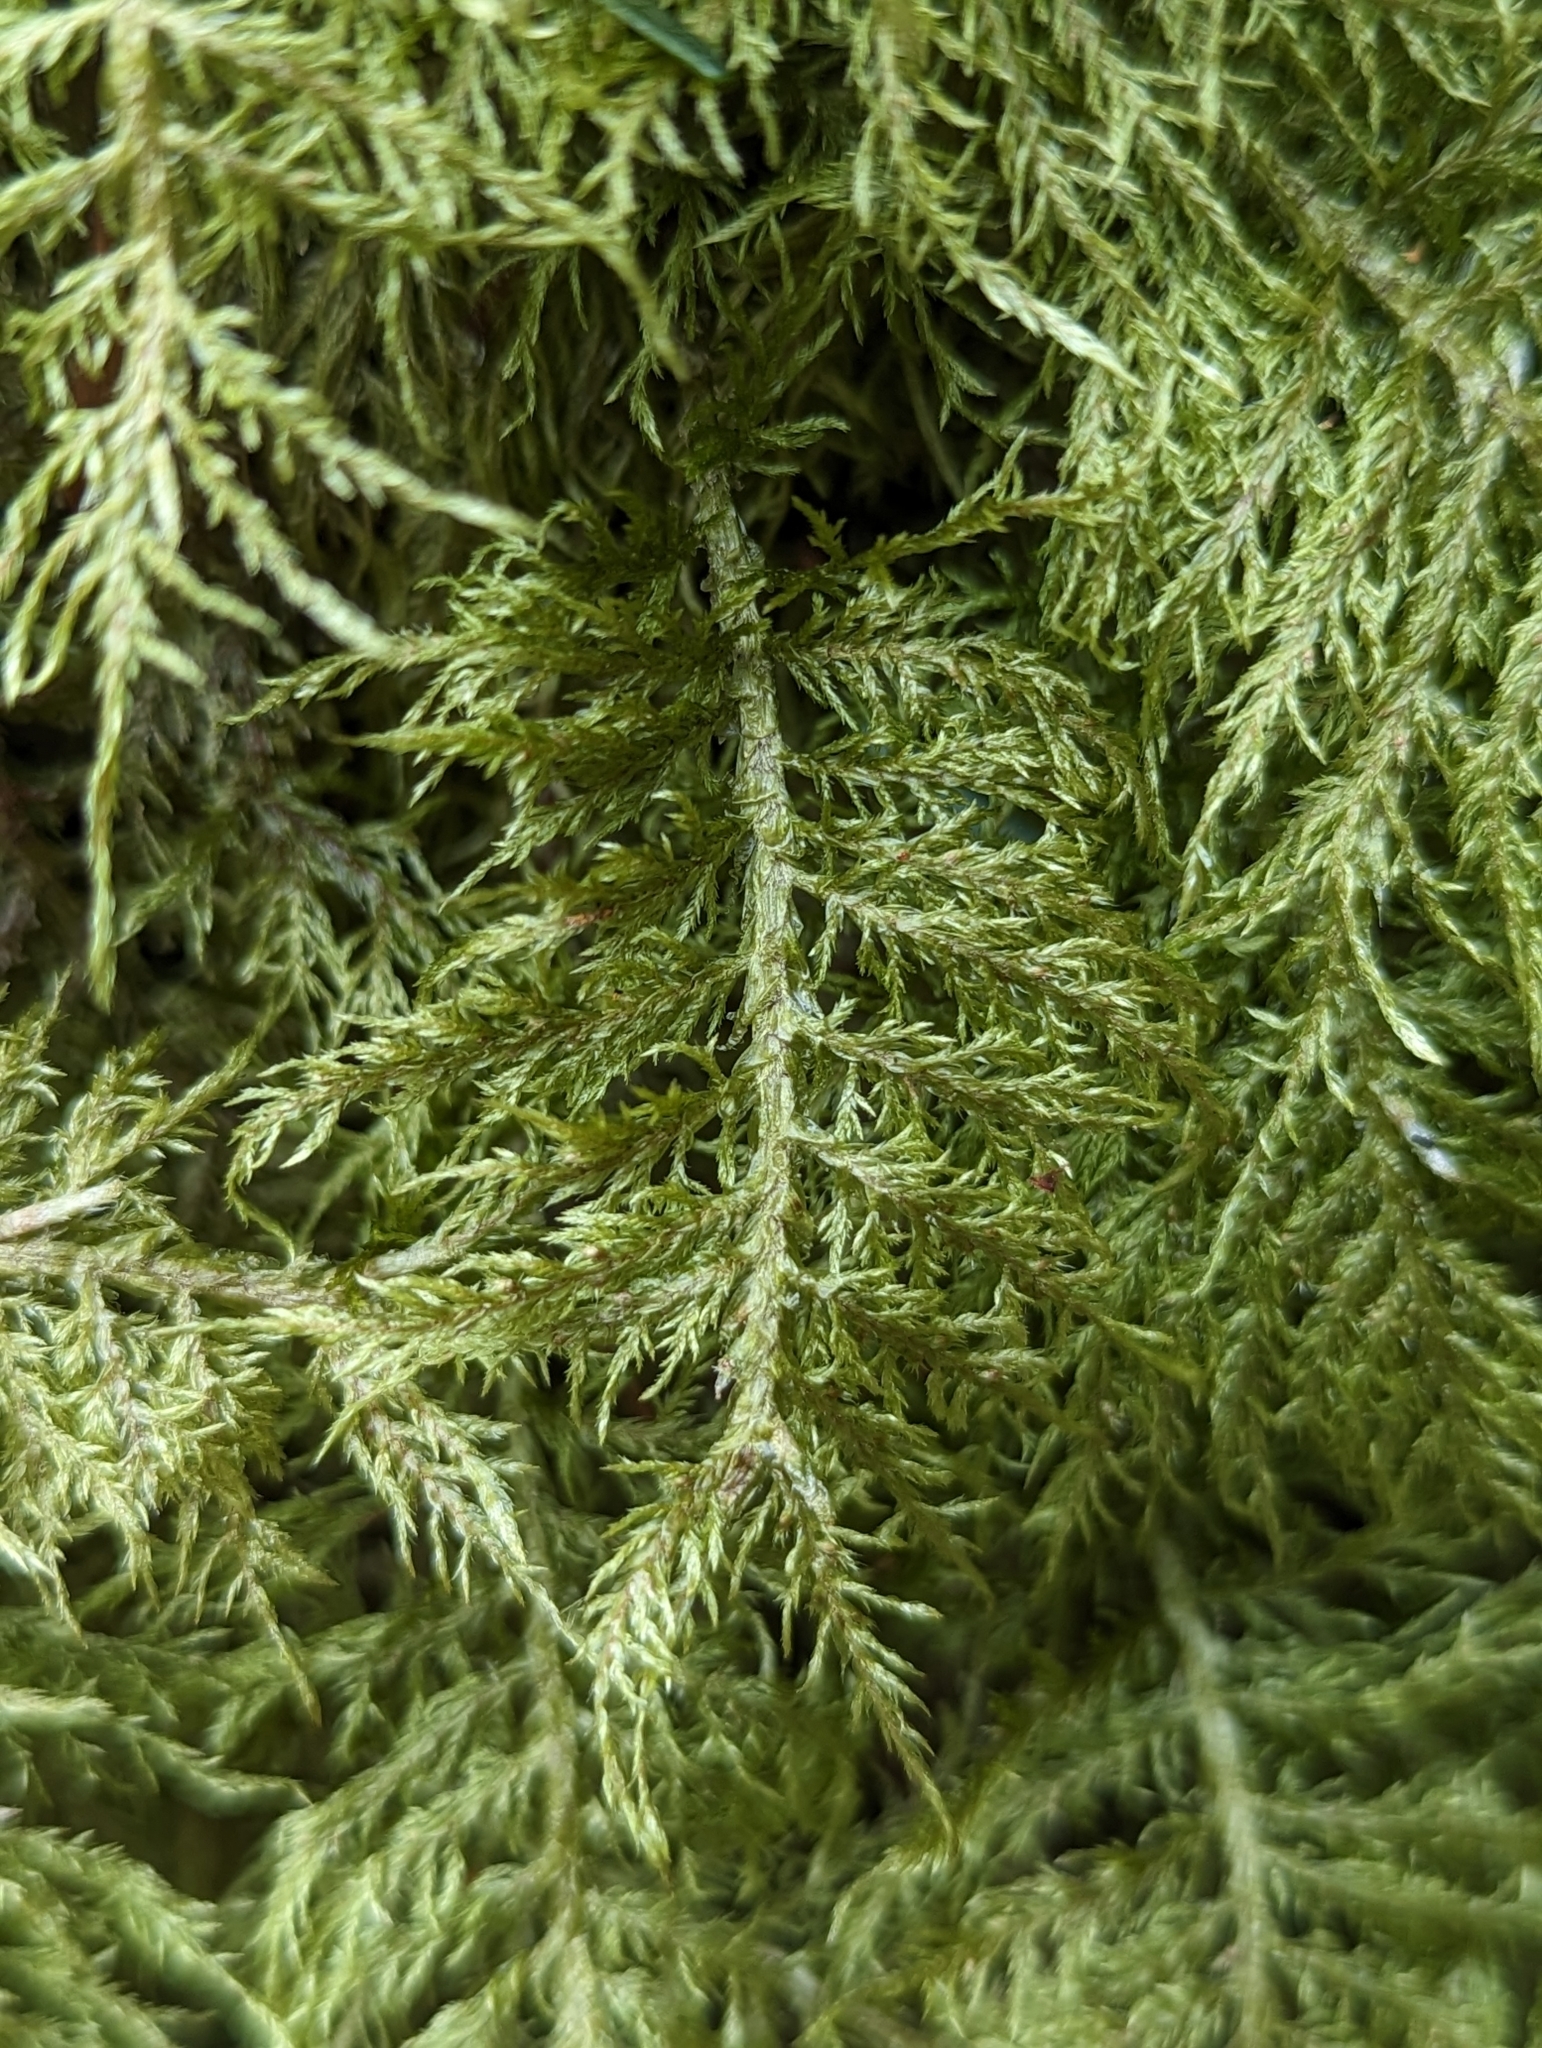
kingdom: Plantae
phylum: Bryophyta
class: Bryopsida
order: Hypnales
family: Hylocomiaceae
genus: Hylocomium
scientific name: Hylocomium splendens
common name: Stairstep moss
